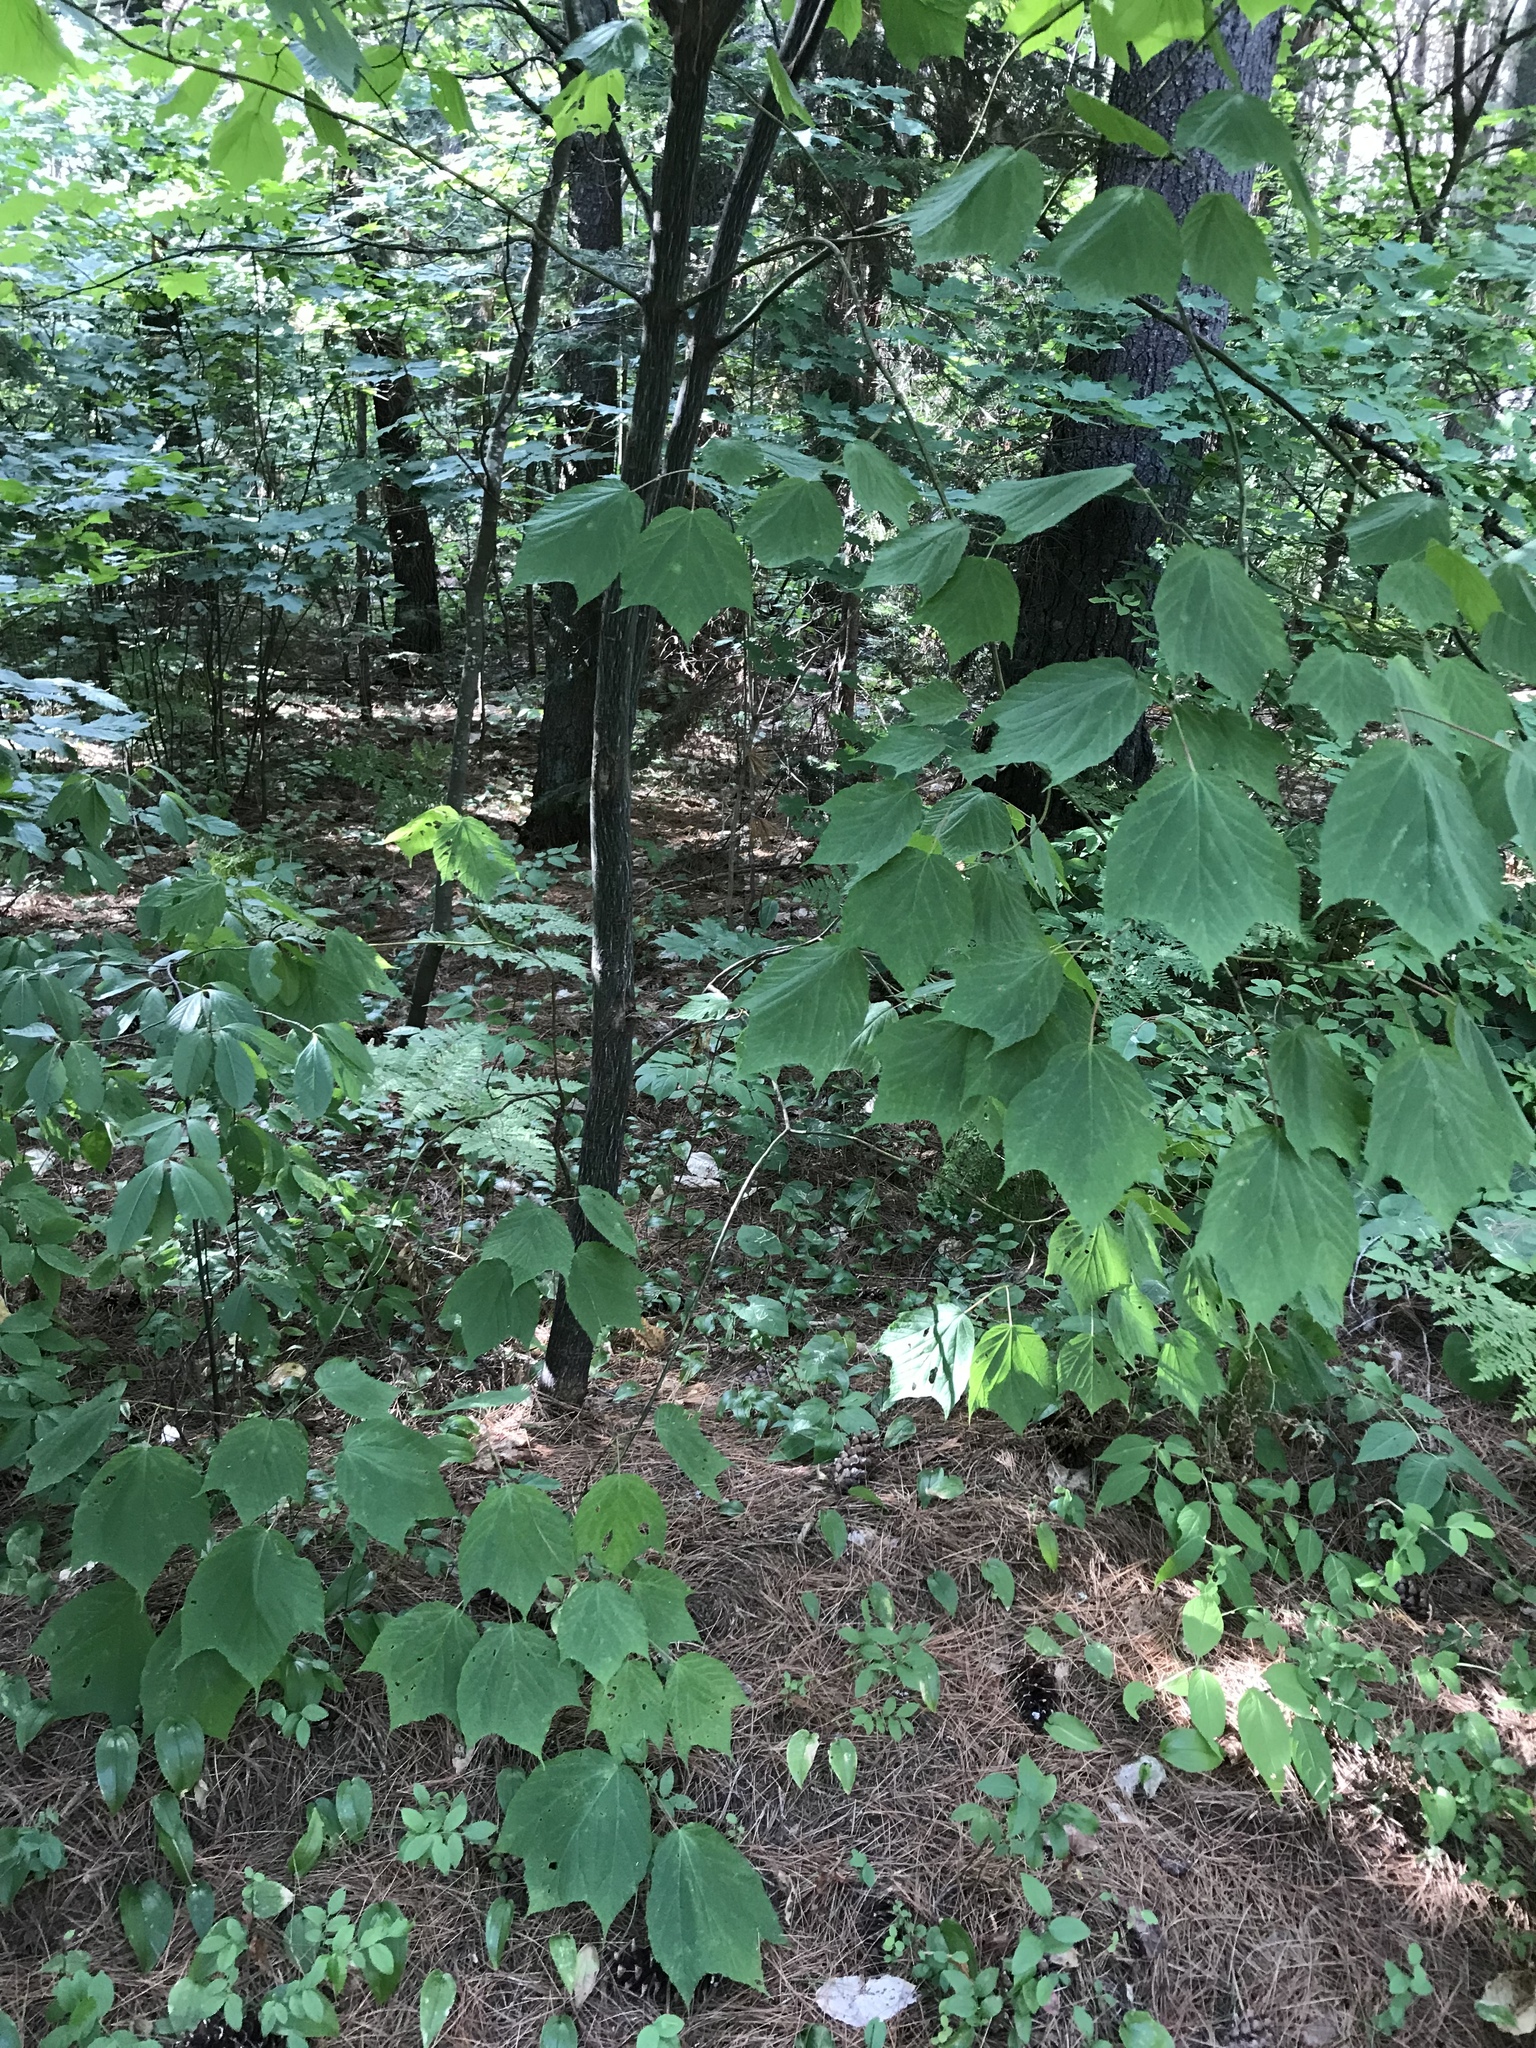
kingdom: Plantae
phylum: Tracheophyta
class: Magnoliopsida
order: Sapindales
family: Sapindaceae
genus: Acer
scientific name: Acer pensylvanicum
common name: Moosewood
